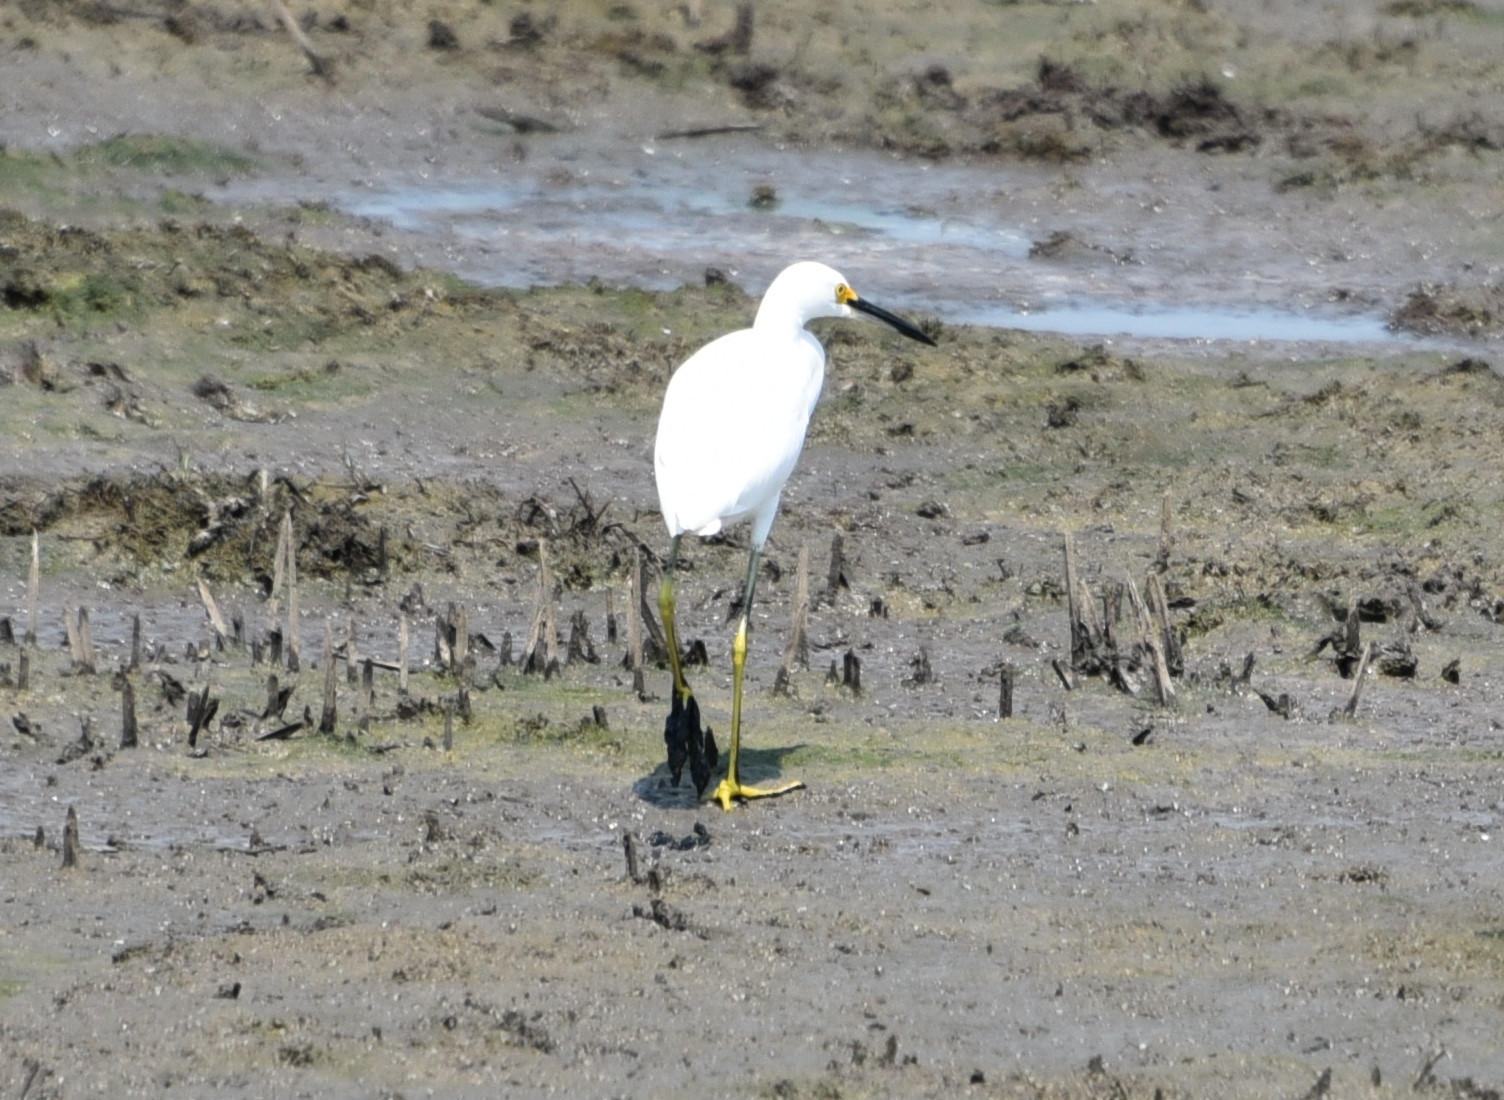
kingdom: Animalia
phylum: Chordata
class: Aves
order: Pelecaniformes
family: Ardeidae
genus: Egretta
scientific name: Egretta thula
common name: Snowy egret
